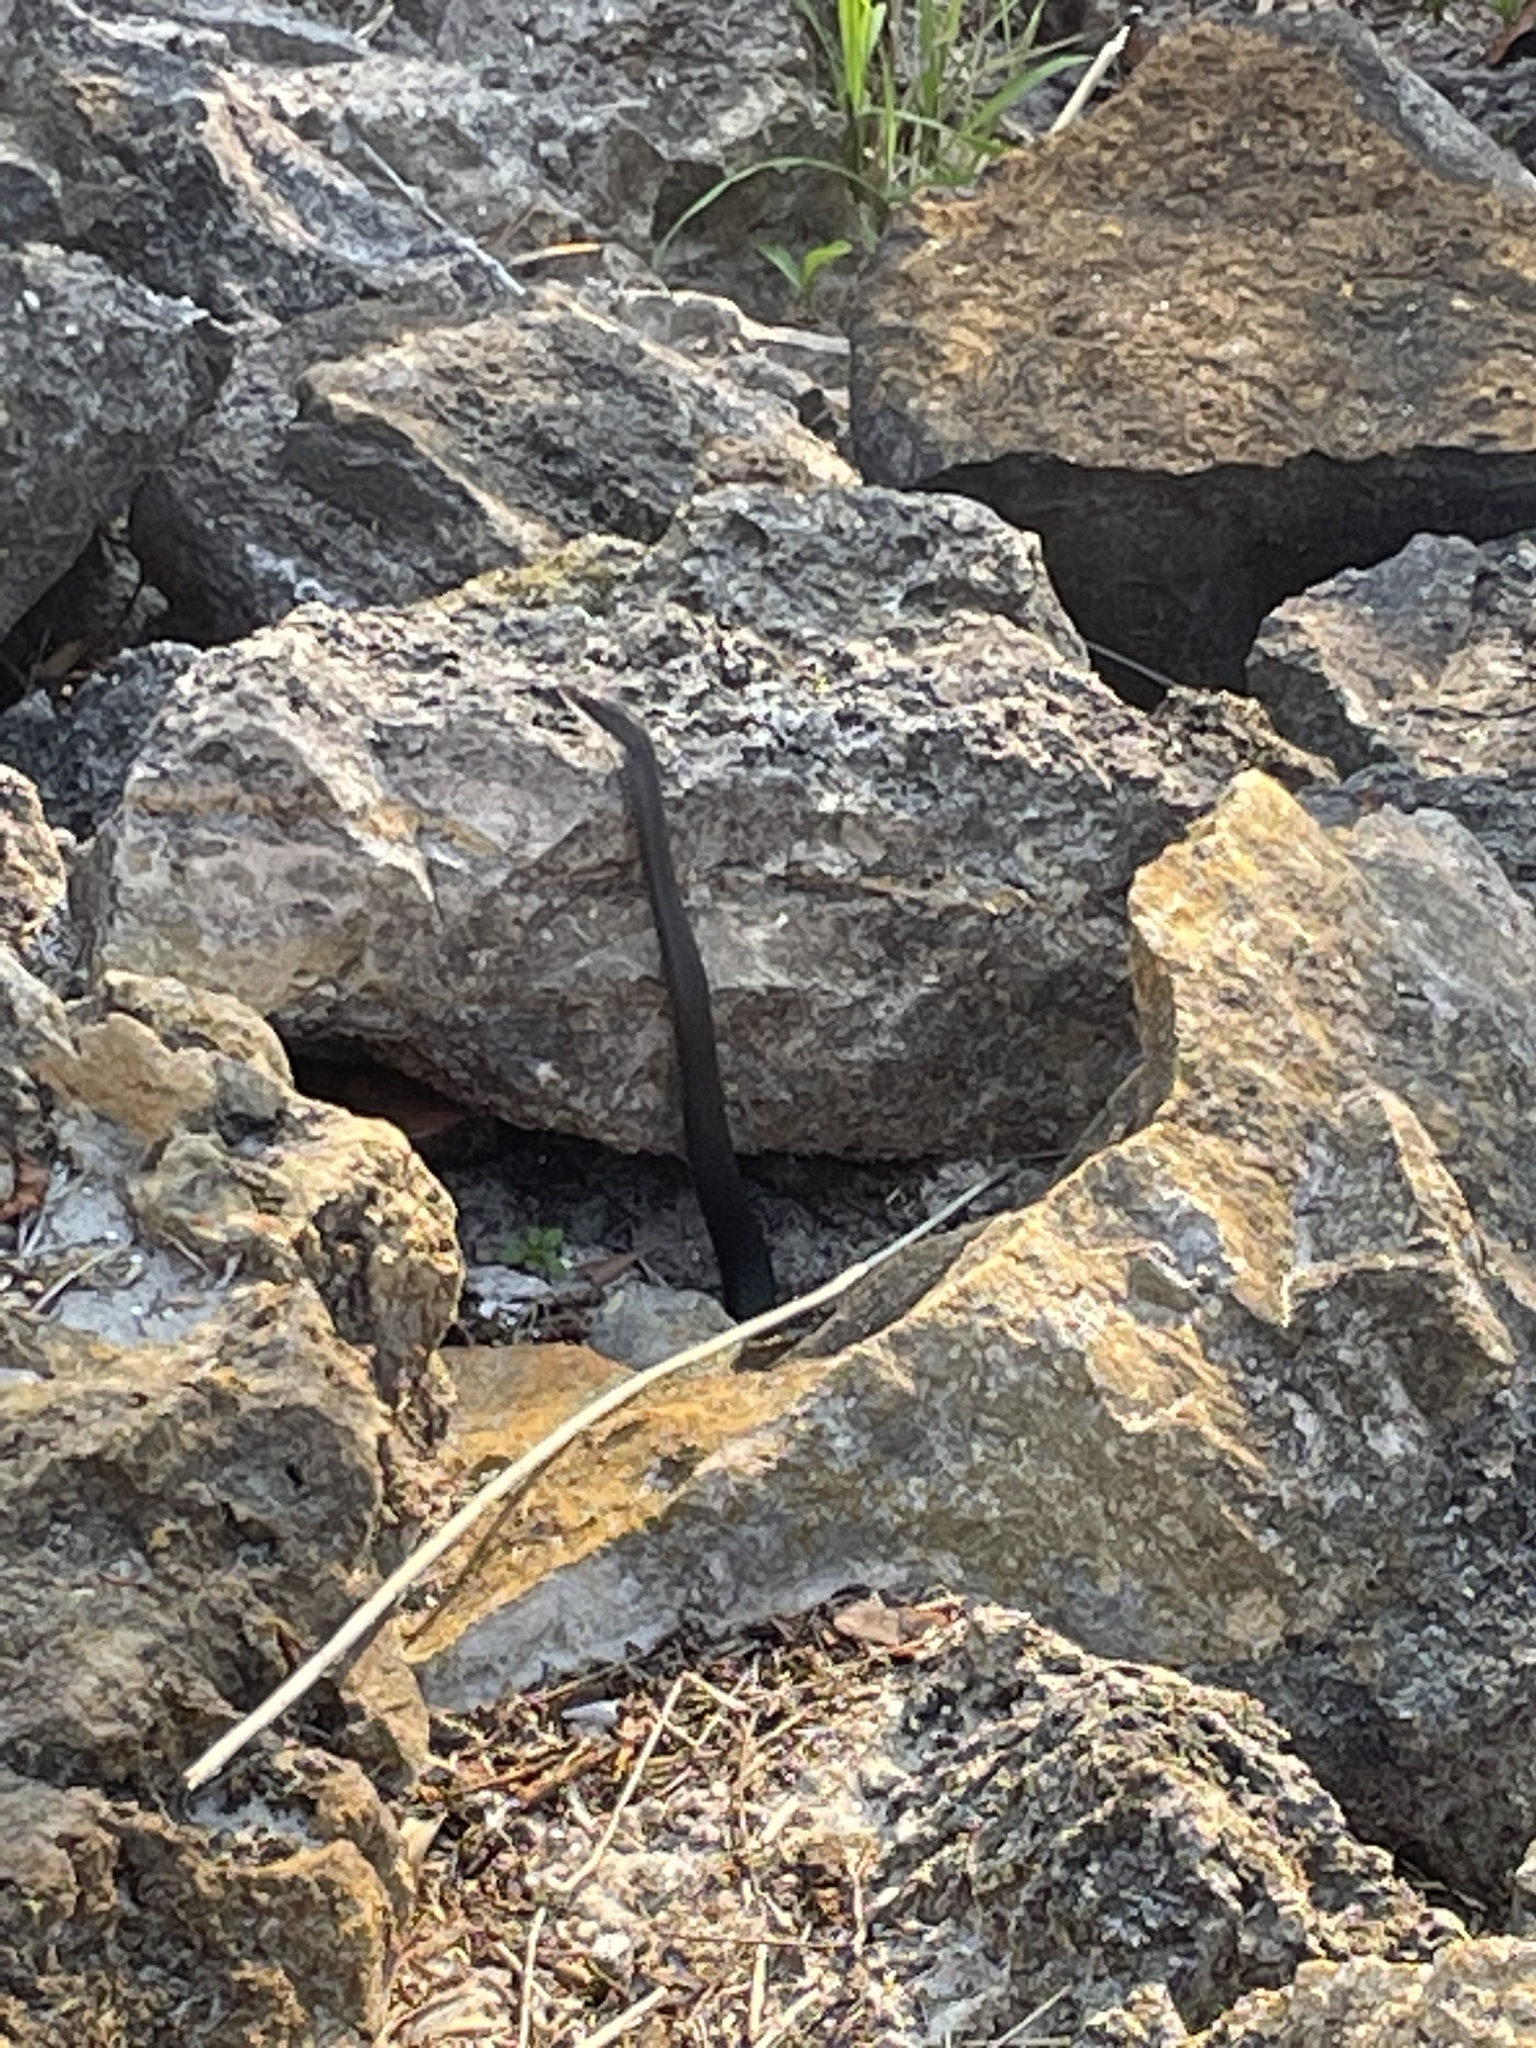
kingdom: Animalia
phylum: Chordata
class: Squamata
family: Colubridae
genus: Coluber
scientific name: Coluber constrictor
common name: Eastern racer
